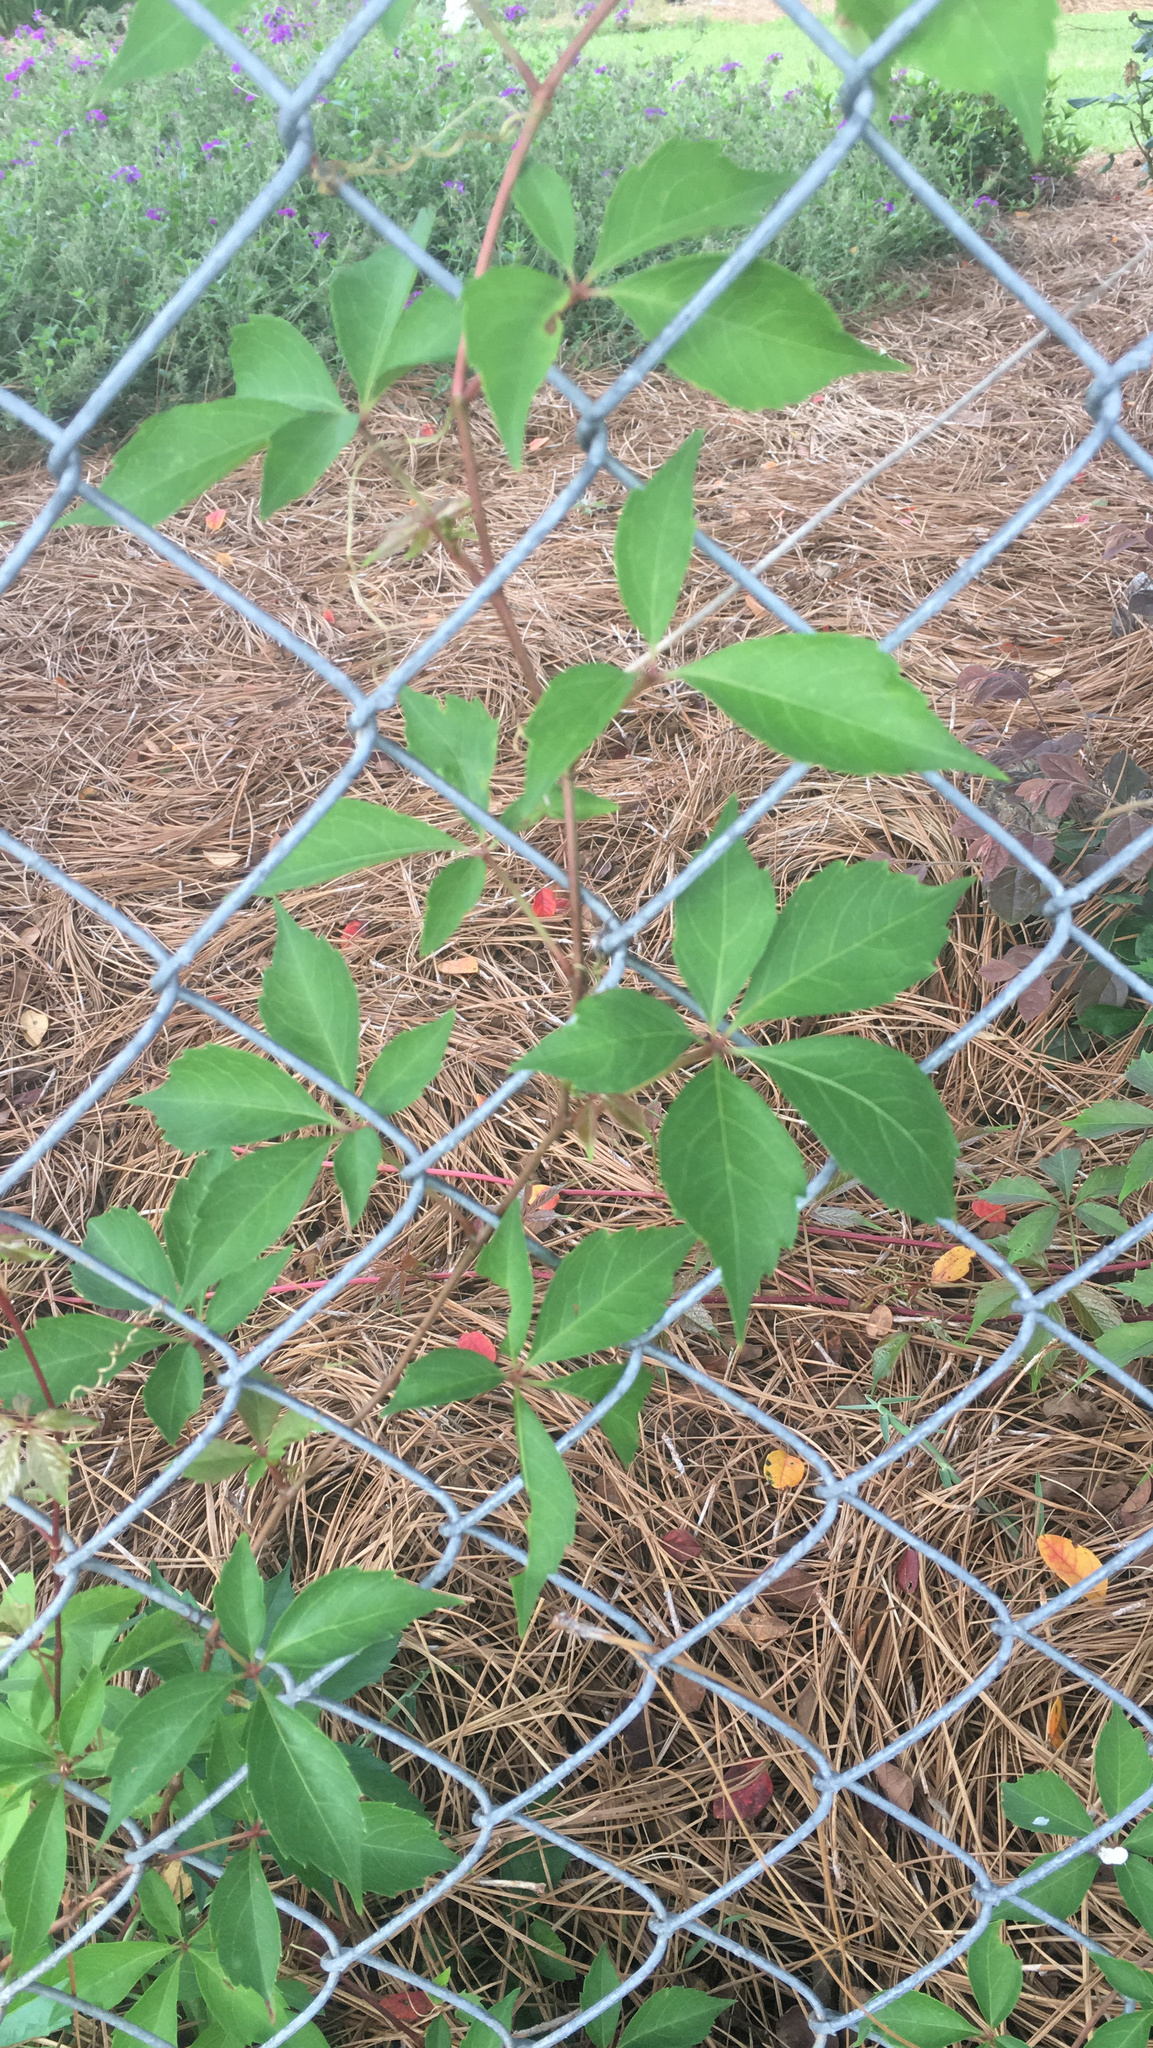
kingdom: Plantae
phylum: Tracheophyta
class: Magnoliopsida
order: Vitales
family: Vitaceae
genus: Parthenocissus
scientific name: Parthenocissus quinquefolia
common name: Virginia-creeper
